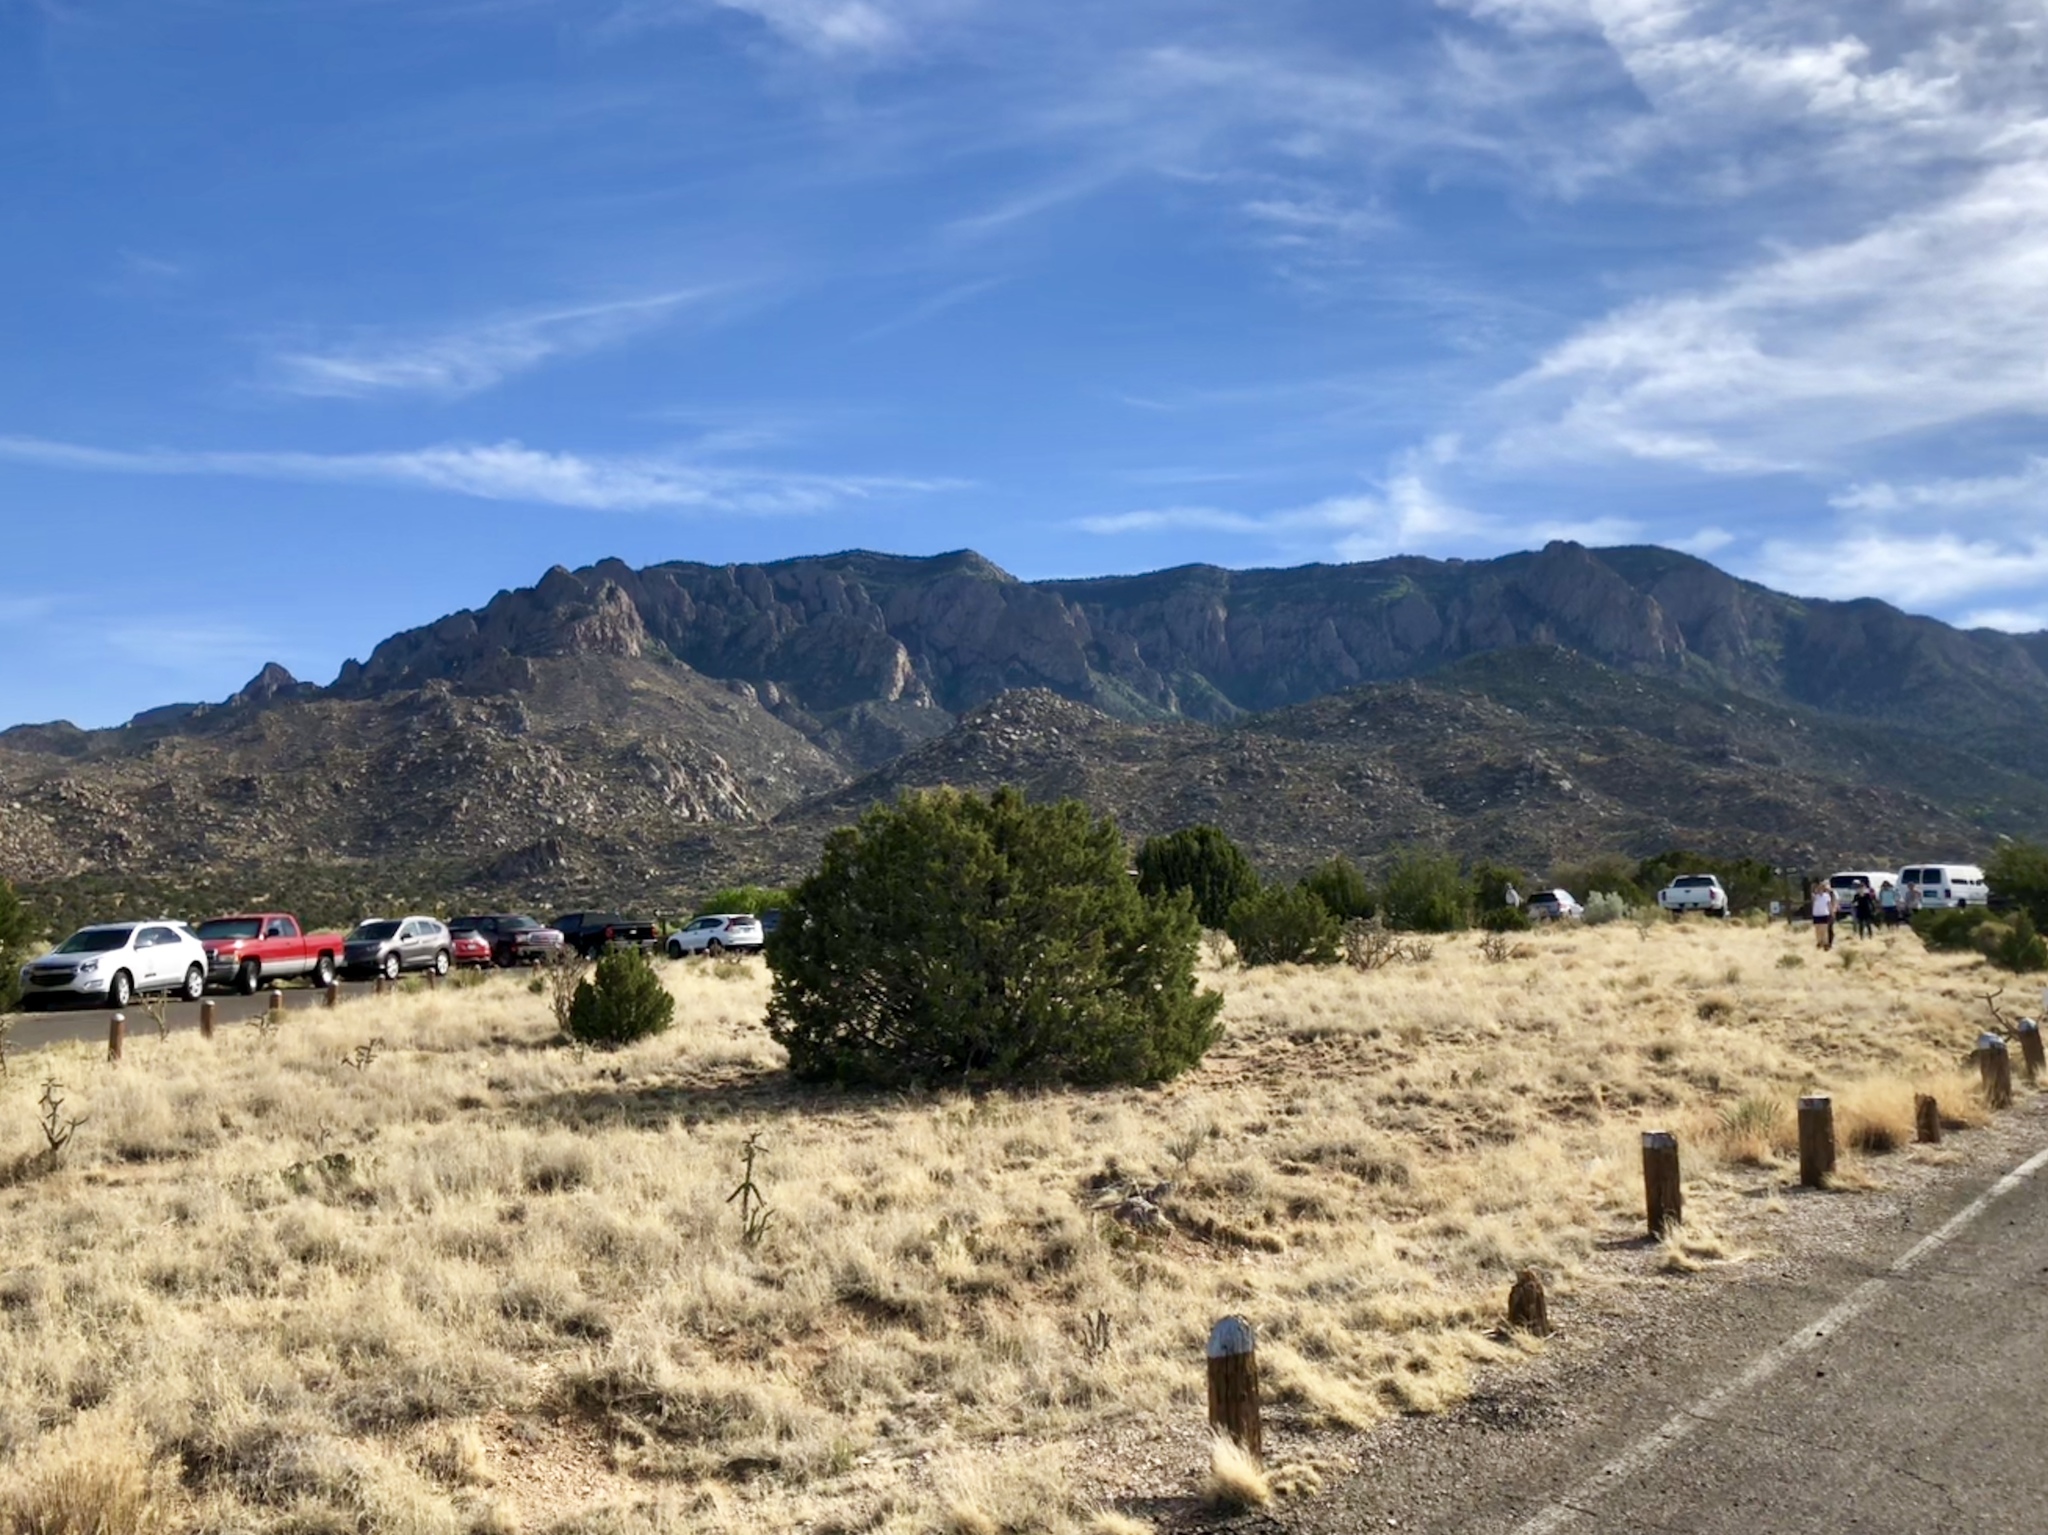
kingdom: Plantae
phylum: Tracheophyta
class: Pinopsida
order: Pinales
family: Cupressaceae
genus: Juniperus
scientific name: Juniperus monosperma
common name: One-seed juniper
